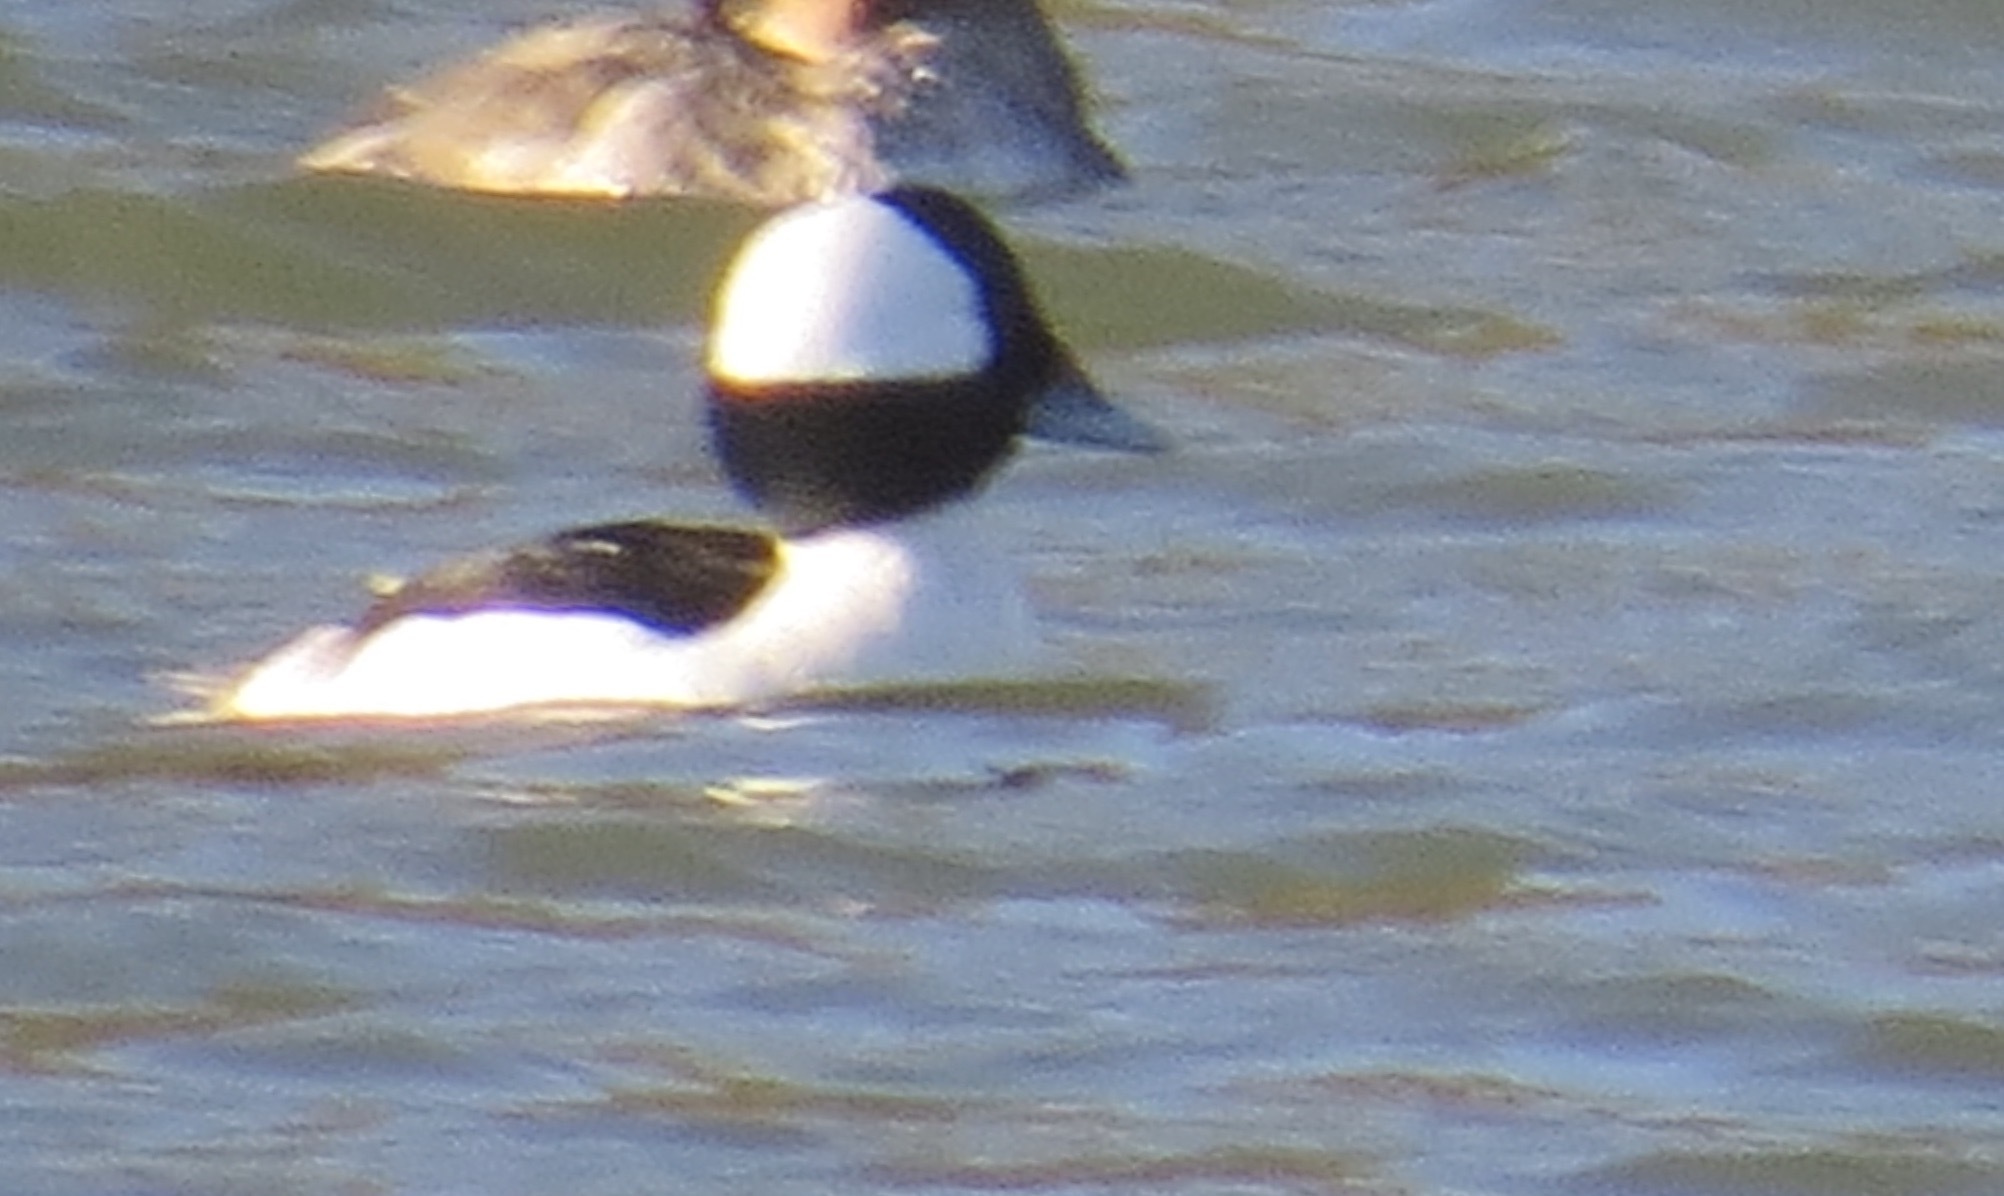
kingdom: Animalia
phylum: Chordata
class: Aves
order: Anseriformes
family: Anatidae
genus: Bucephala
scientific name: Bucephala albeola
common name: Bufflehead
